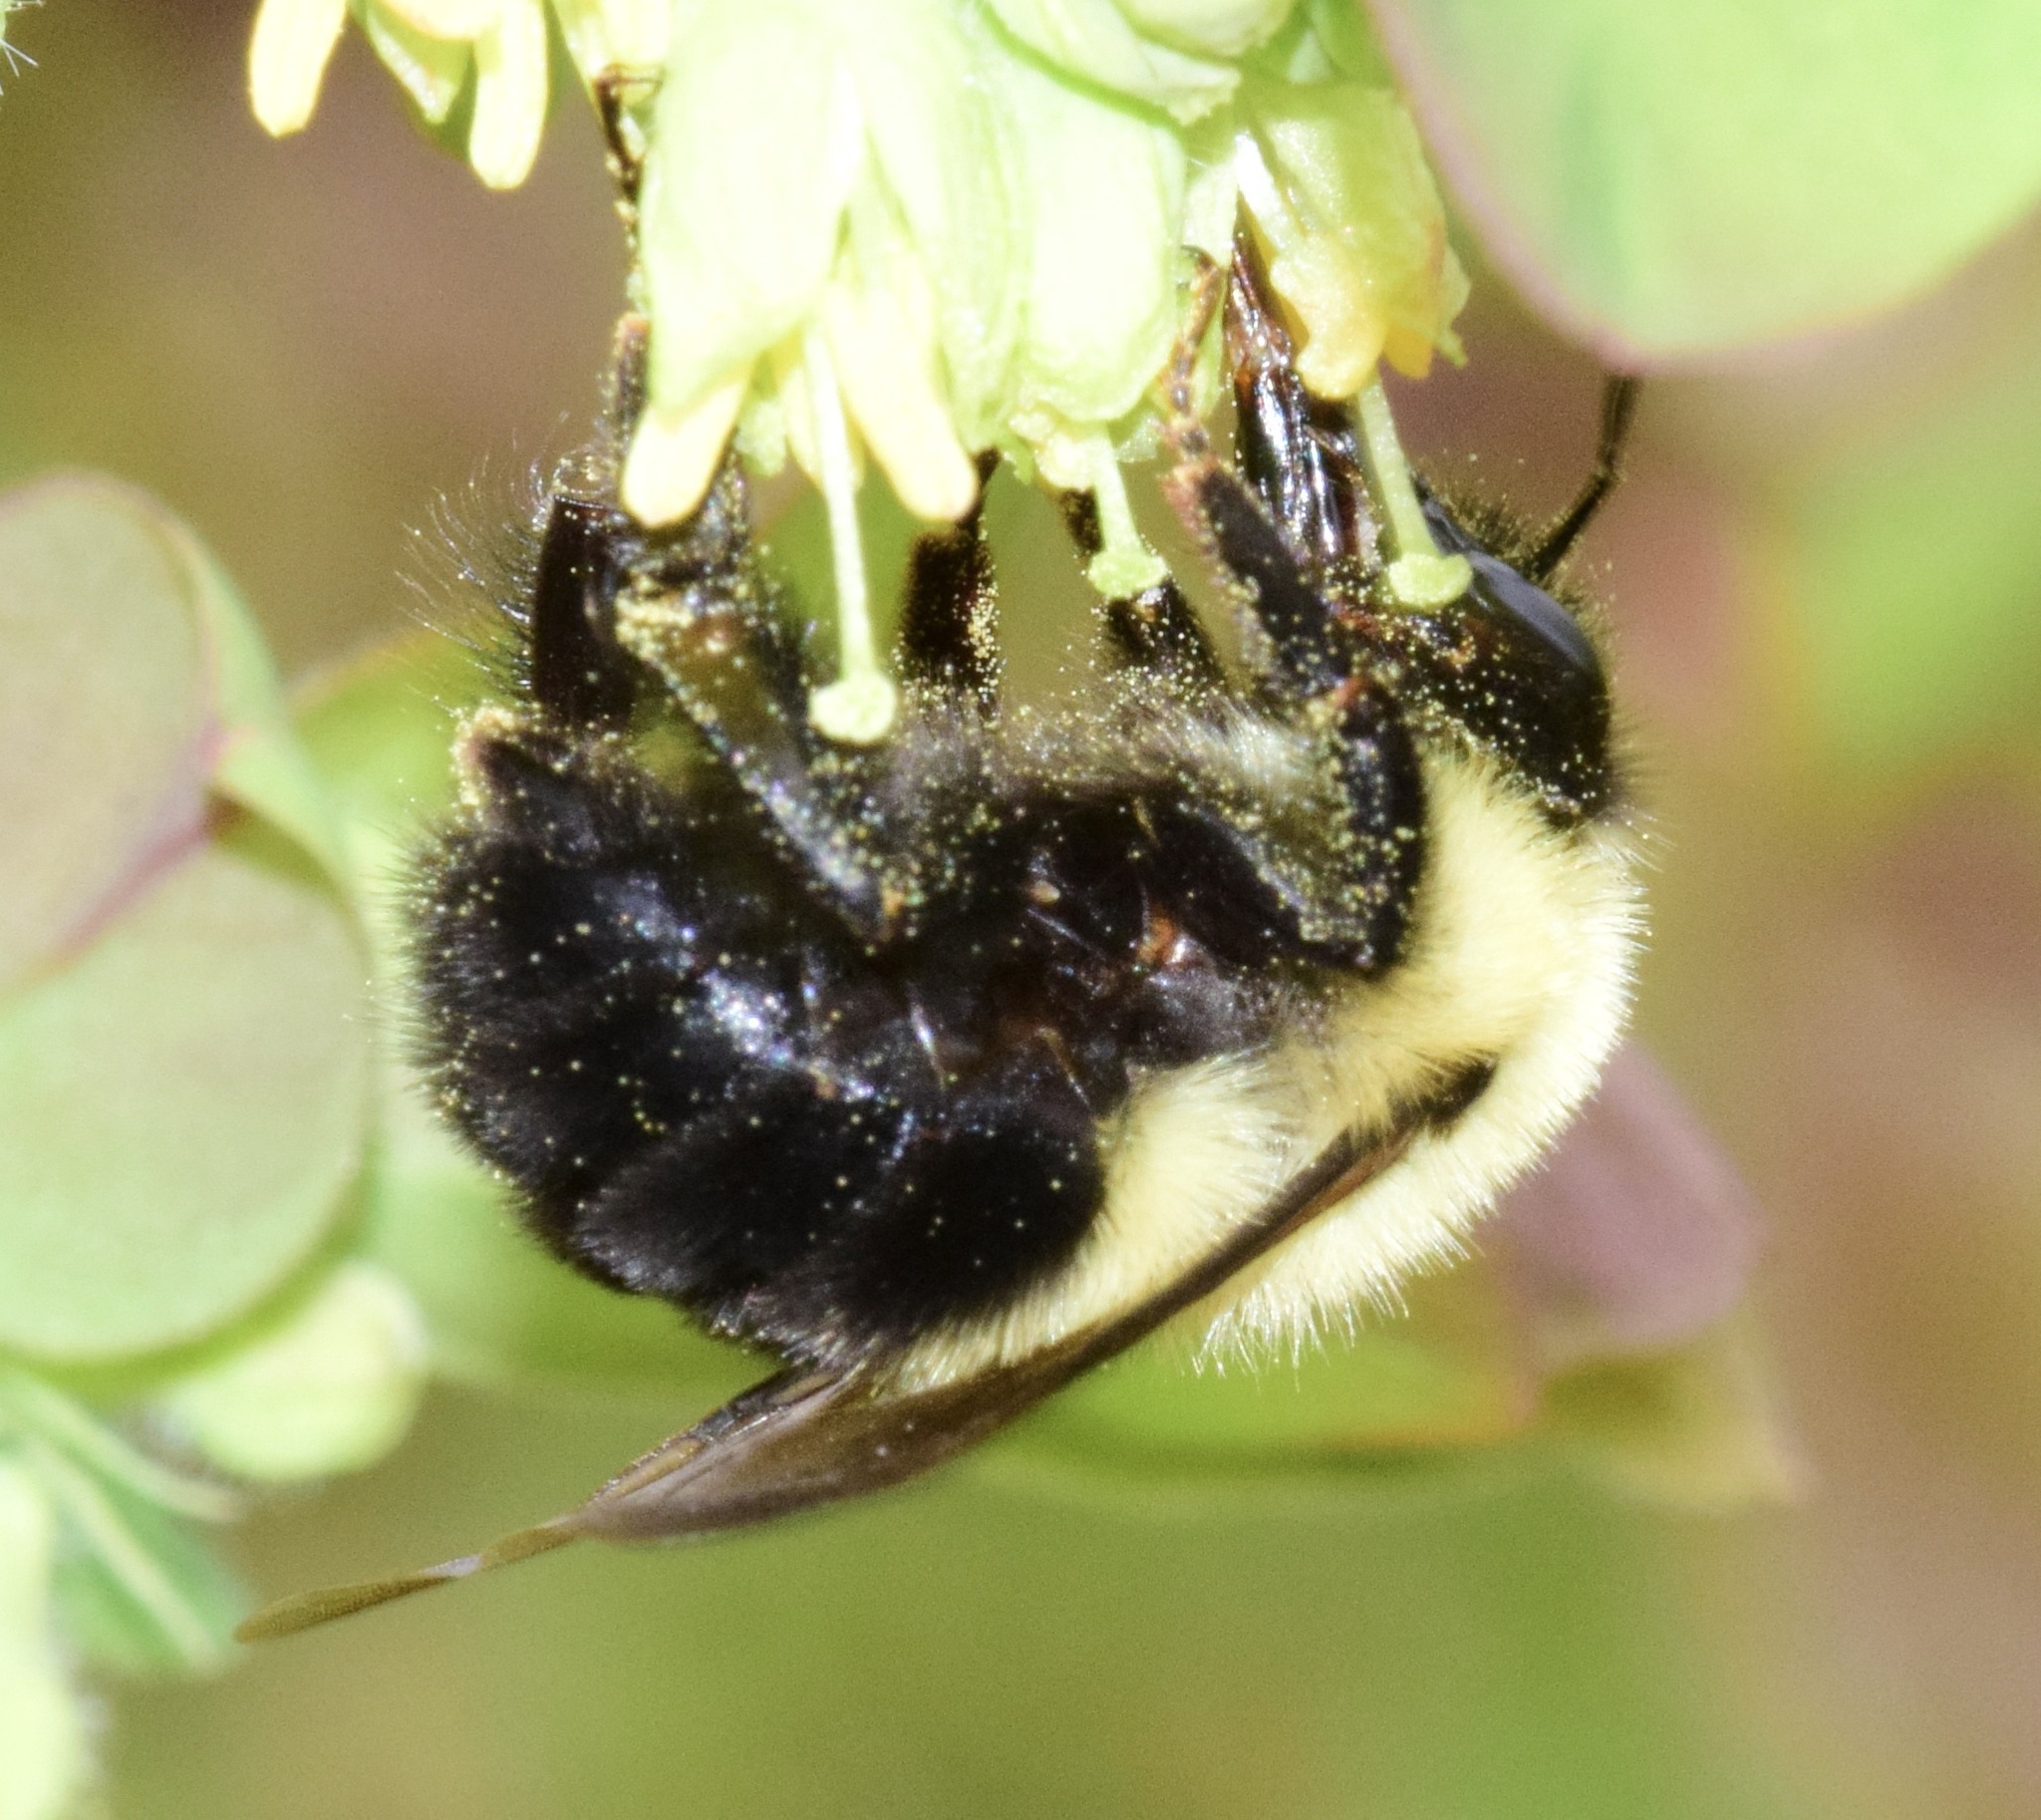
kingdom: Animalia
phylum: Arthropoda
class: Insecta
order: Hymenoptera
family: Apidae
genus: Bombus
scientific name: Bombus bimaculatus
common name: Two-spotted bumble bee
